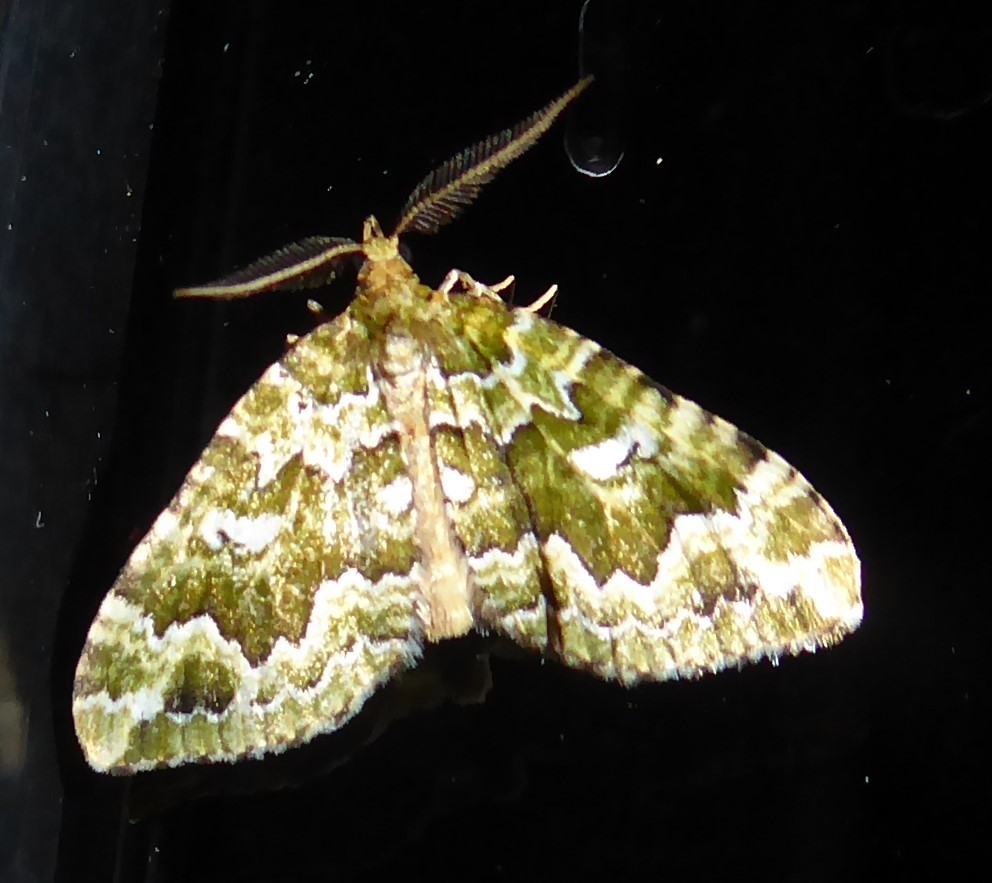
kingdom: Animalia
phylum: Arthropoda
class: Insecta
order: Lepidoptera
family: Geometridae
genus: Asaphodes
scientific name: Asaphodes beata
